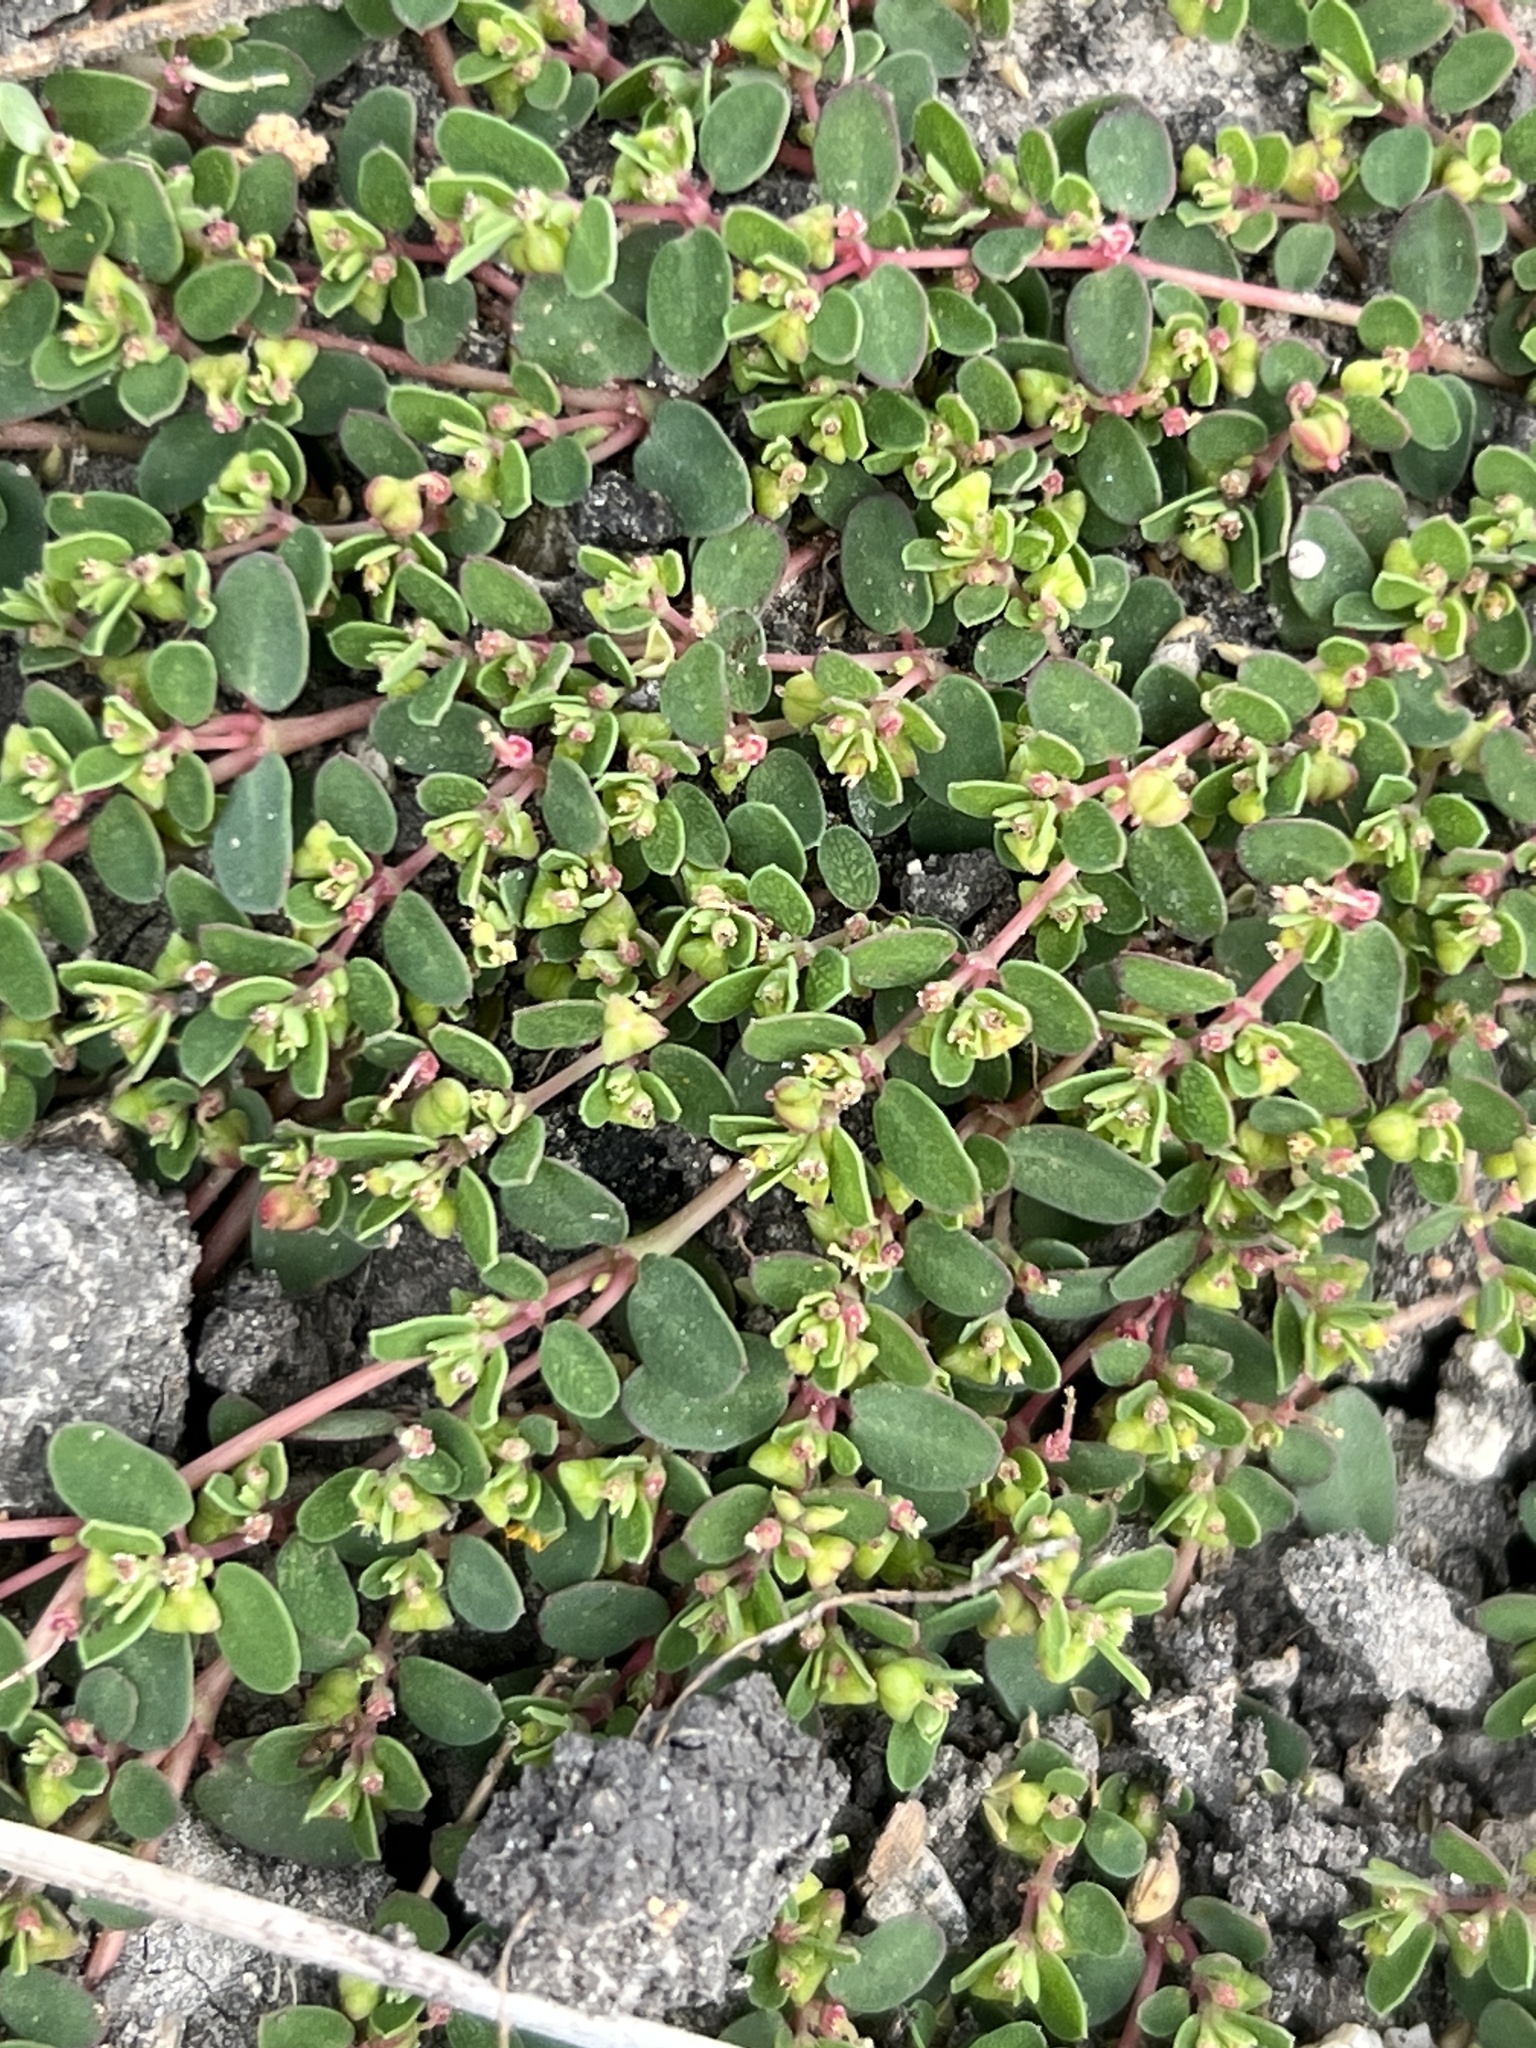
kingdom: Plantae
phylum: Tracheophyta
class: Magnoliopsida
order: Malpighiales
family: Euphorbiaceae
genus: Euphorbia
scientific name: Euphorbia serpens
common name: Matted sandmat
